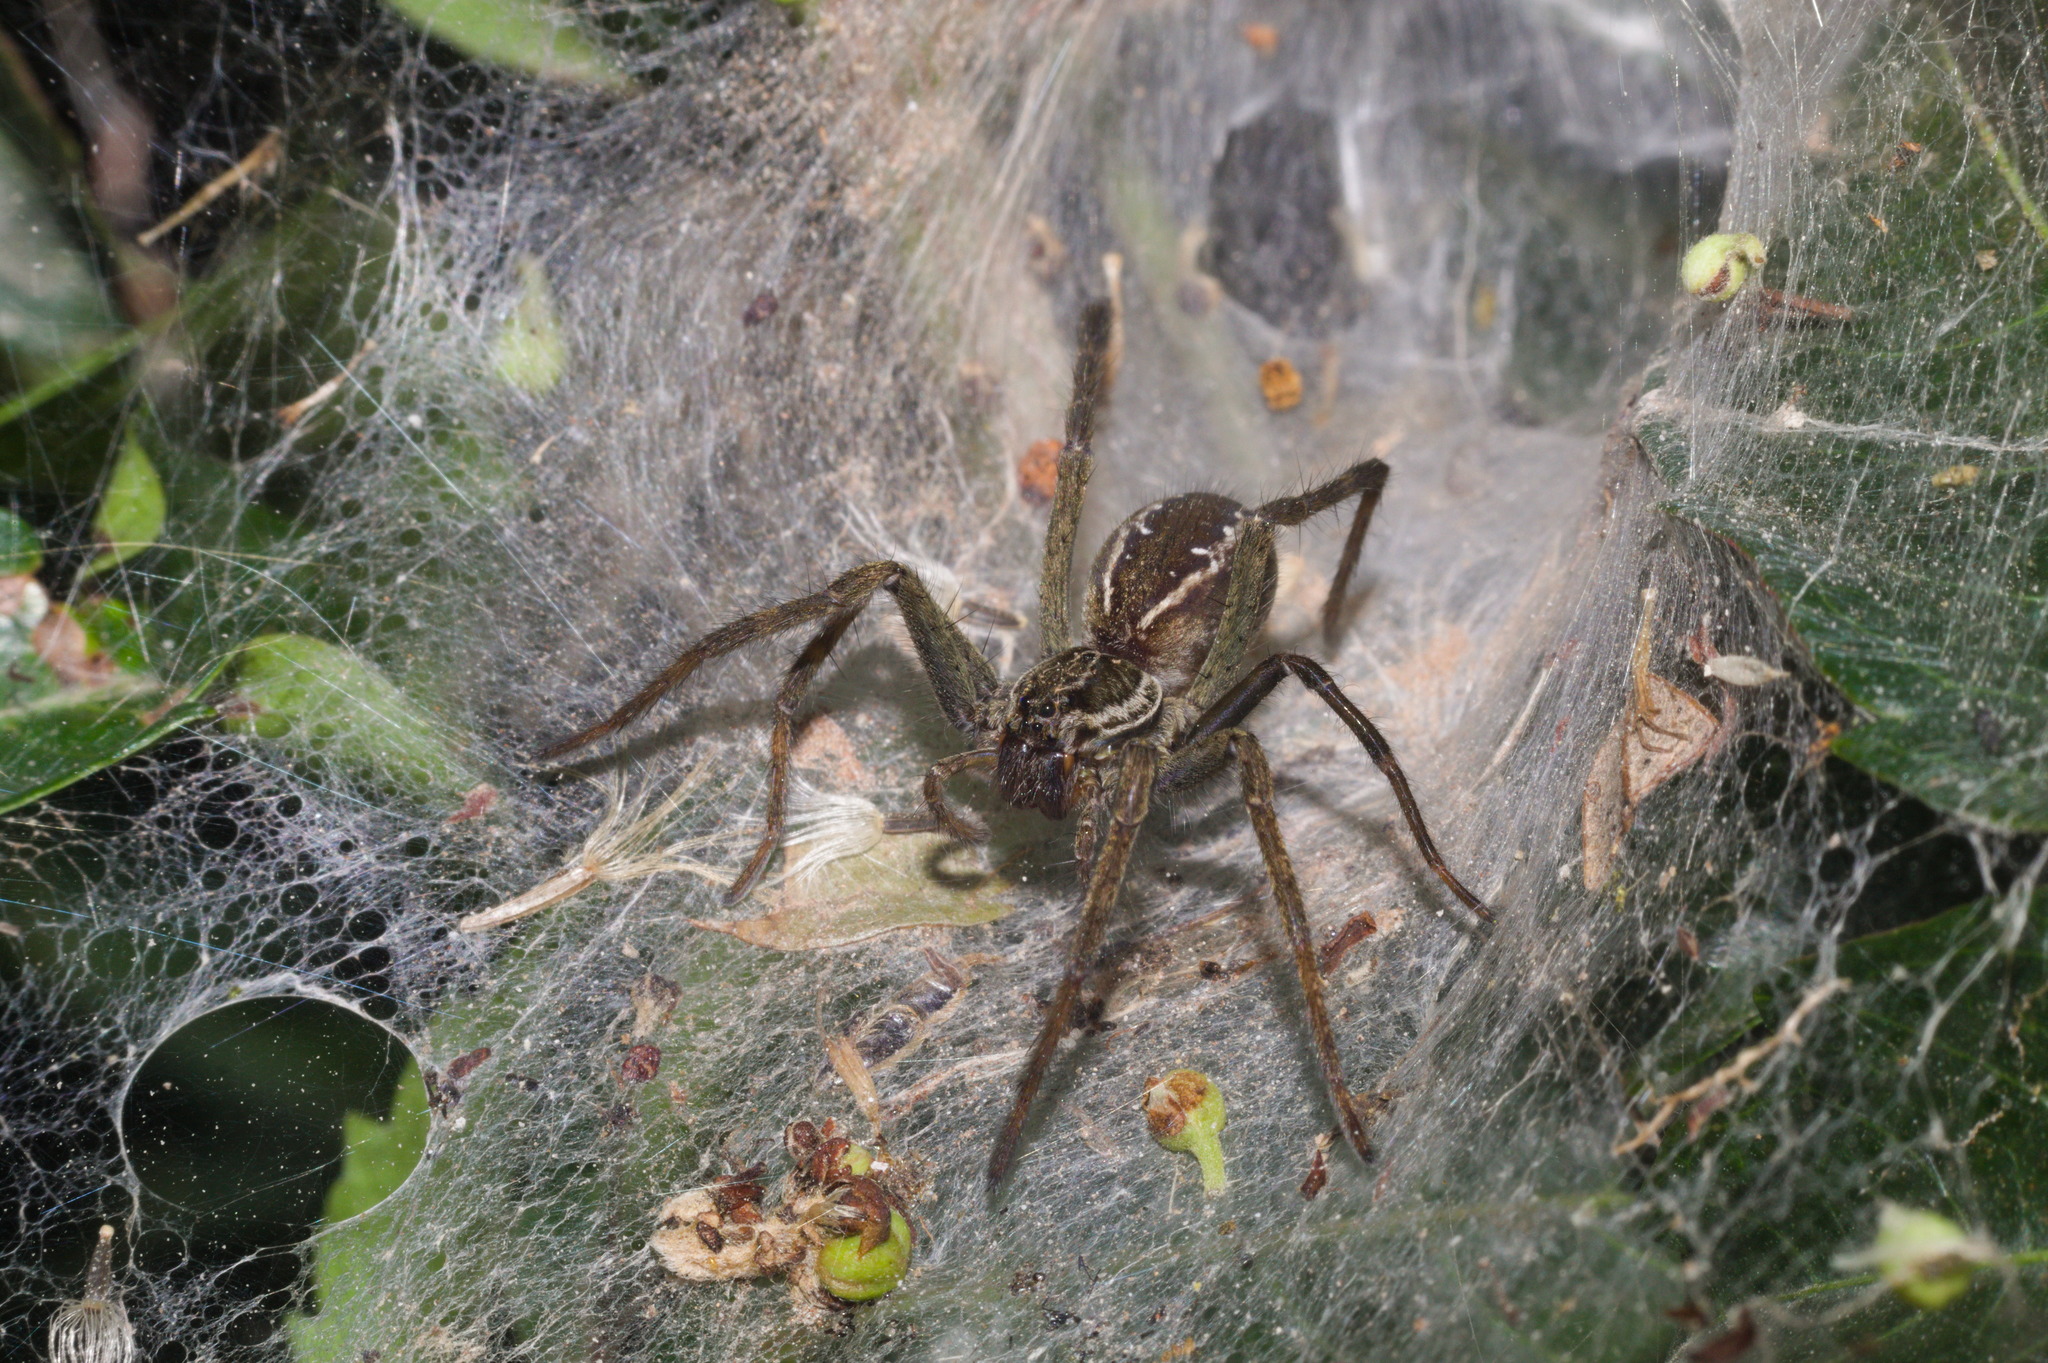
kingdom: Animalia
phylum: Arthropoda
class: Arachnida
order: Araneae
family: Lycosidae
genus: Aglaoctenus
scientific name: Aglaoctenus lagotis
